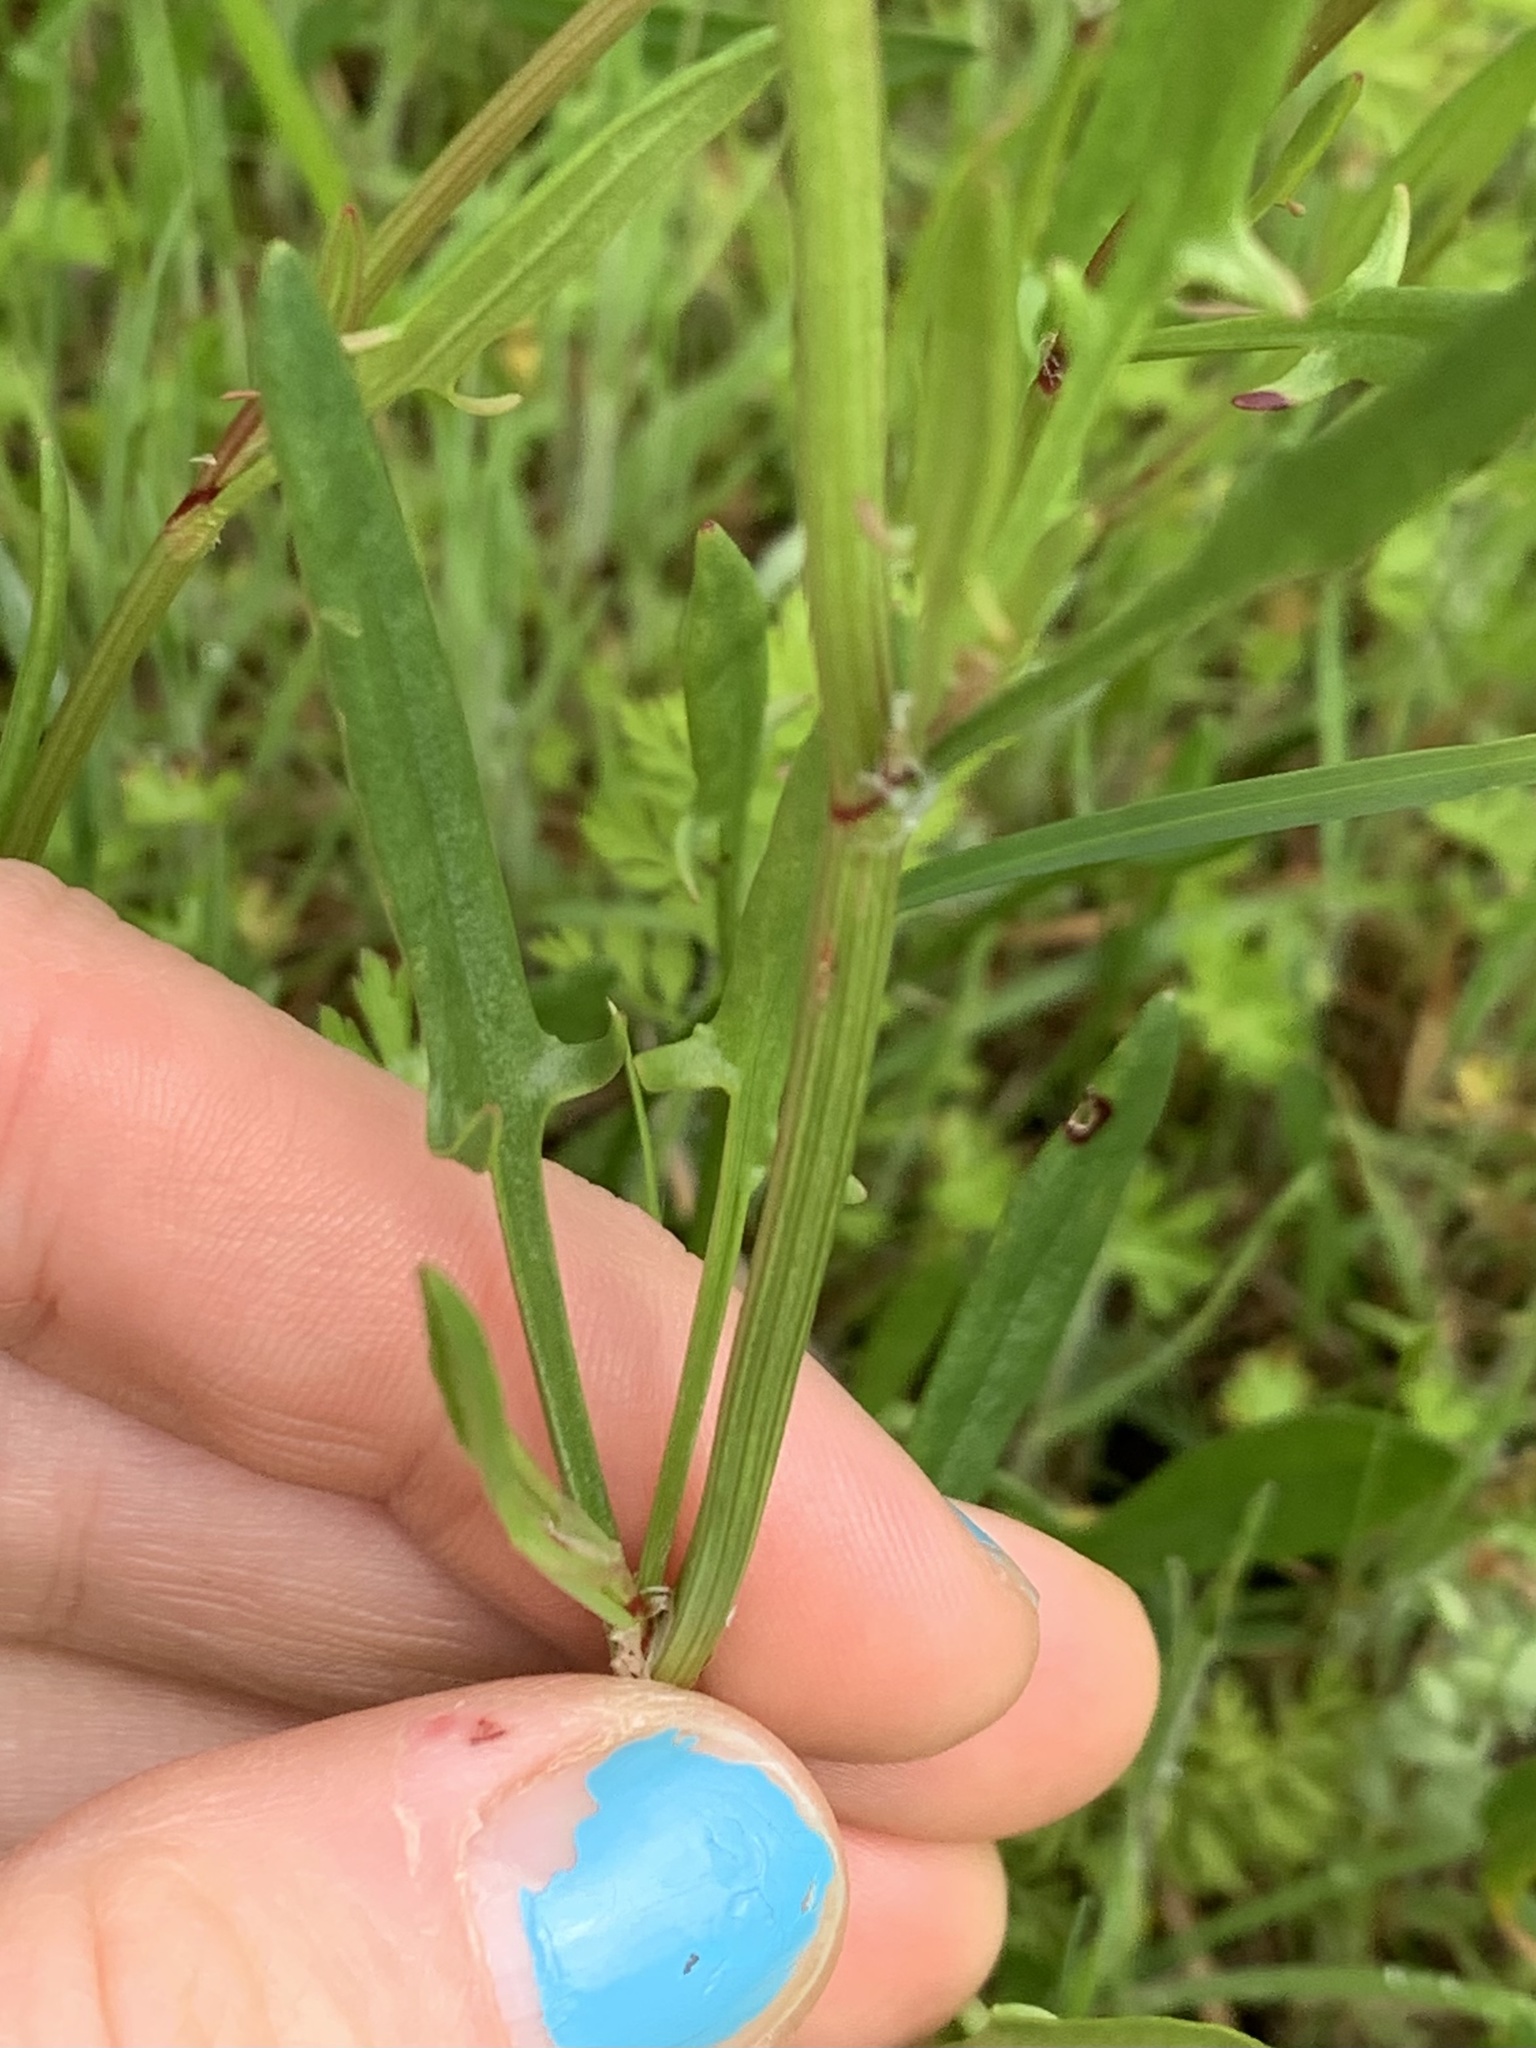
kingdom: Plantae
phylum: Tracheophyta
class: Magnoliopsida
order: Caryophyllales
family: Polygonaceae
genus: Rumex
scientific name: Rumex acetosella
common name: Common sheep sorrel
